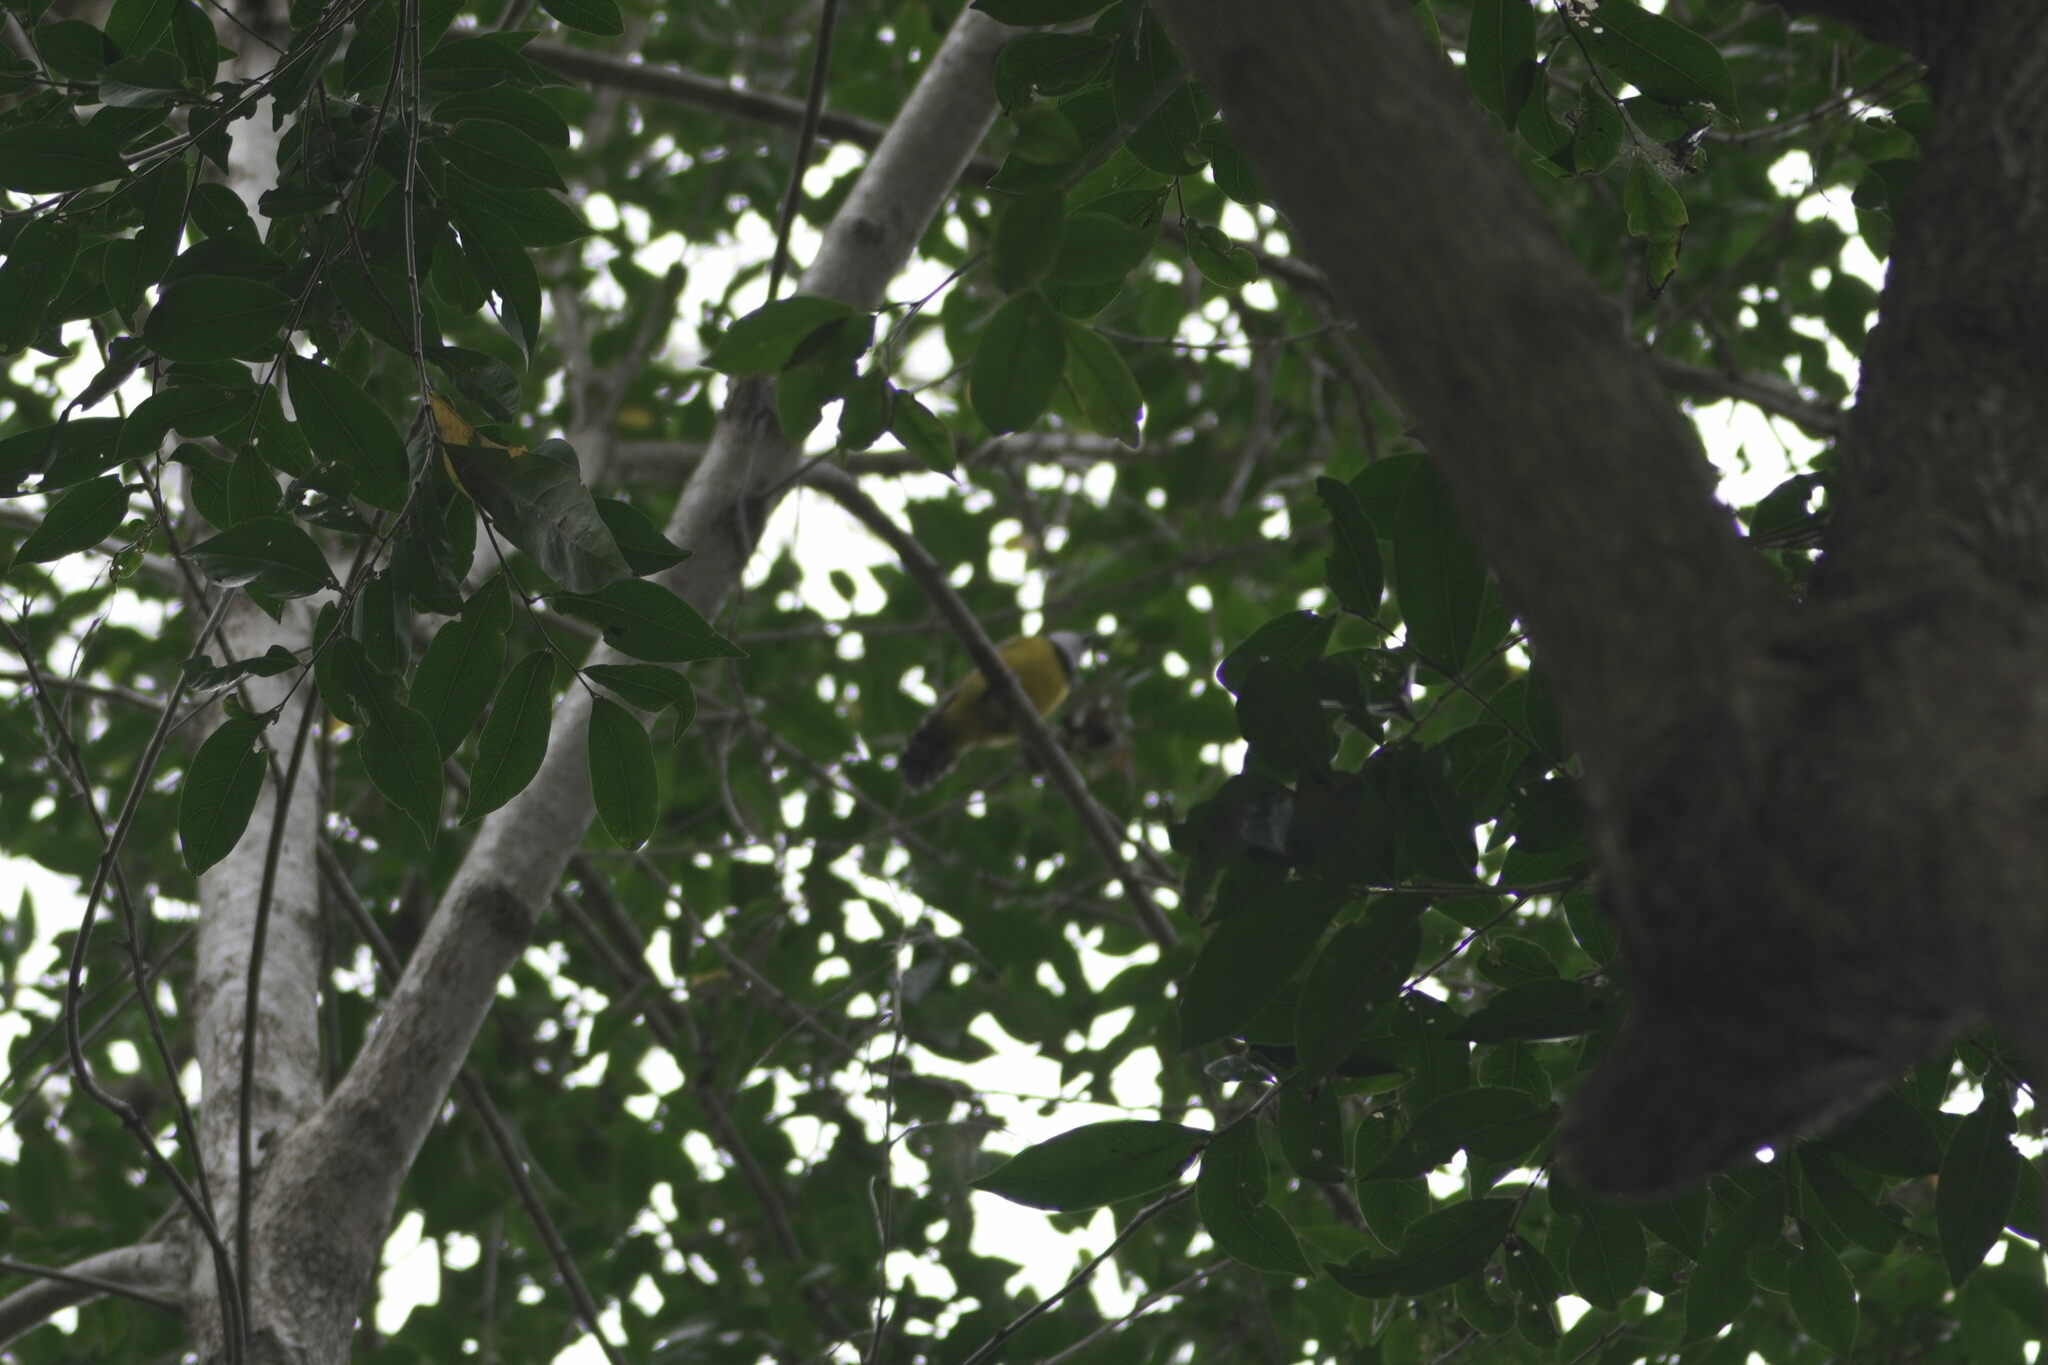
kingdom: Animalia
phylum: Chordata
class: Aves
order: Passeriformes
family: Pachycephalidae
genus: Pachycephala
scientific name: Pachycephala pectoralis
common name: Australian golden whistler
